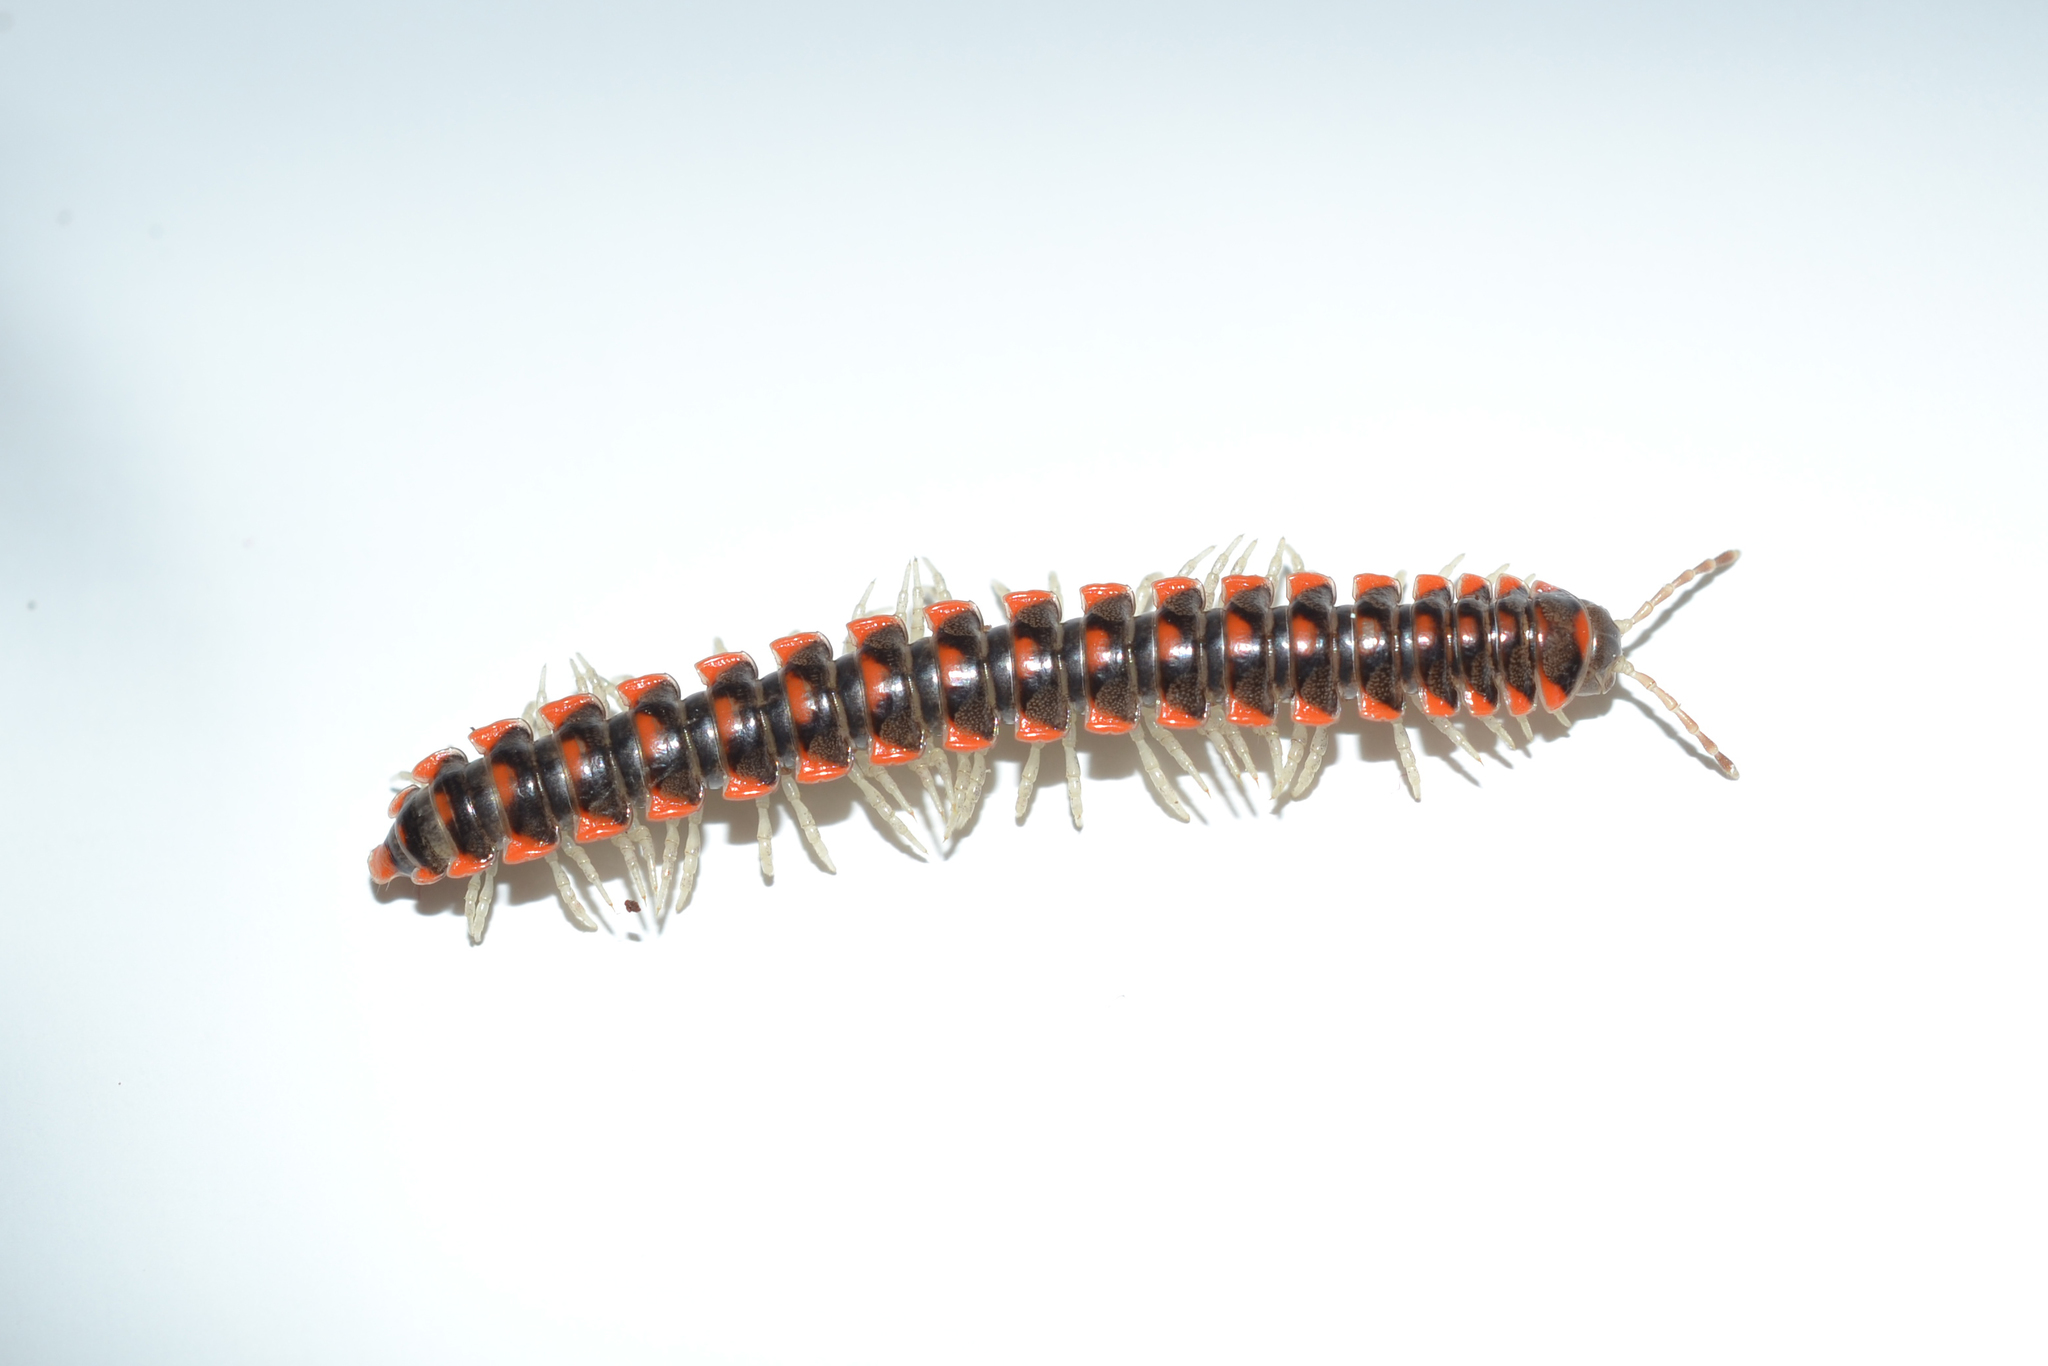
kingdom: Animalia
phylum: Arthropoda
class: Diplopoda
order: Polydesmida
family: Xystodesmidae
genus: Euryurus
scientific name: Euryurus leachii
